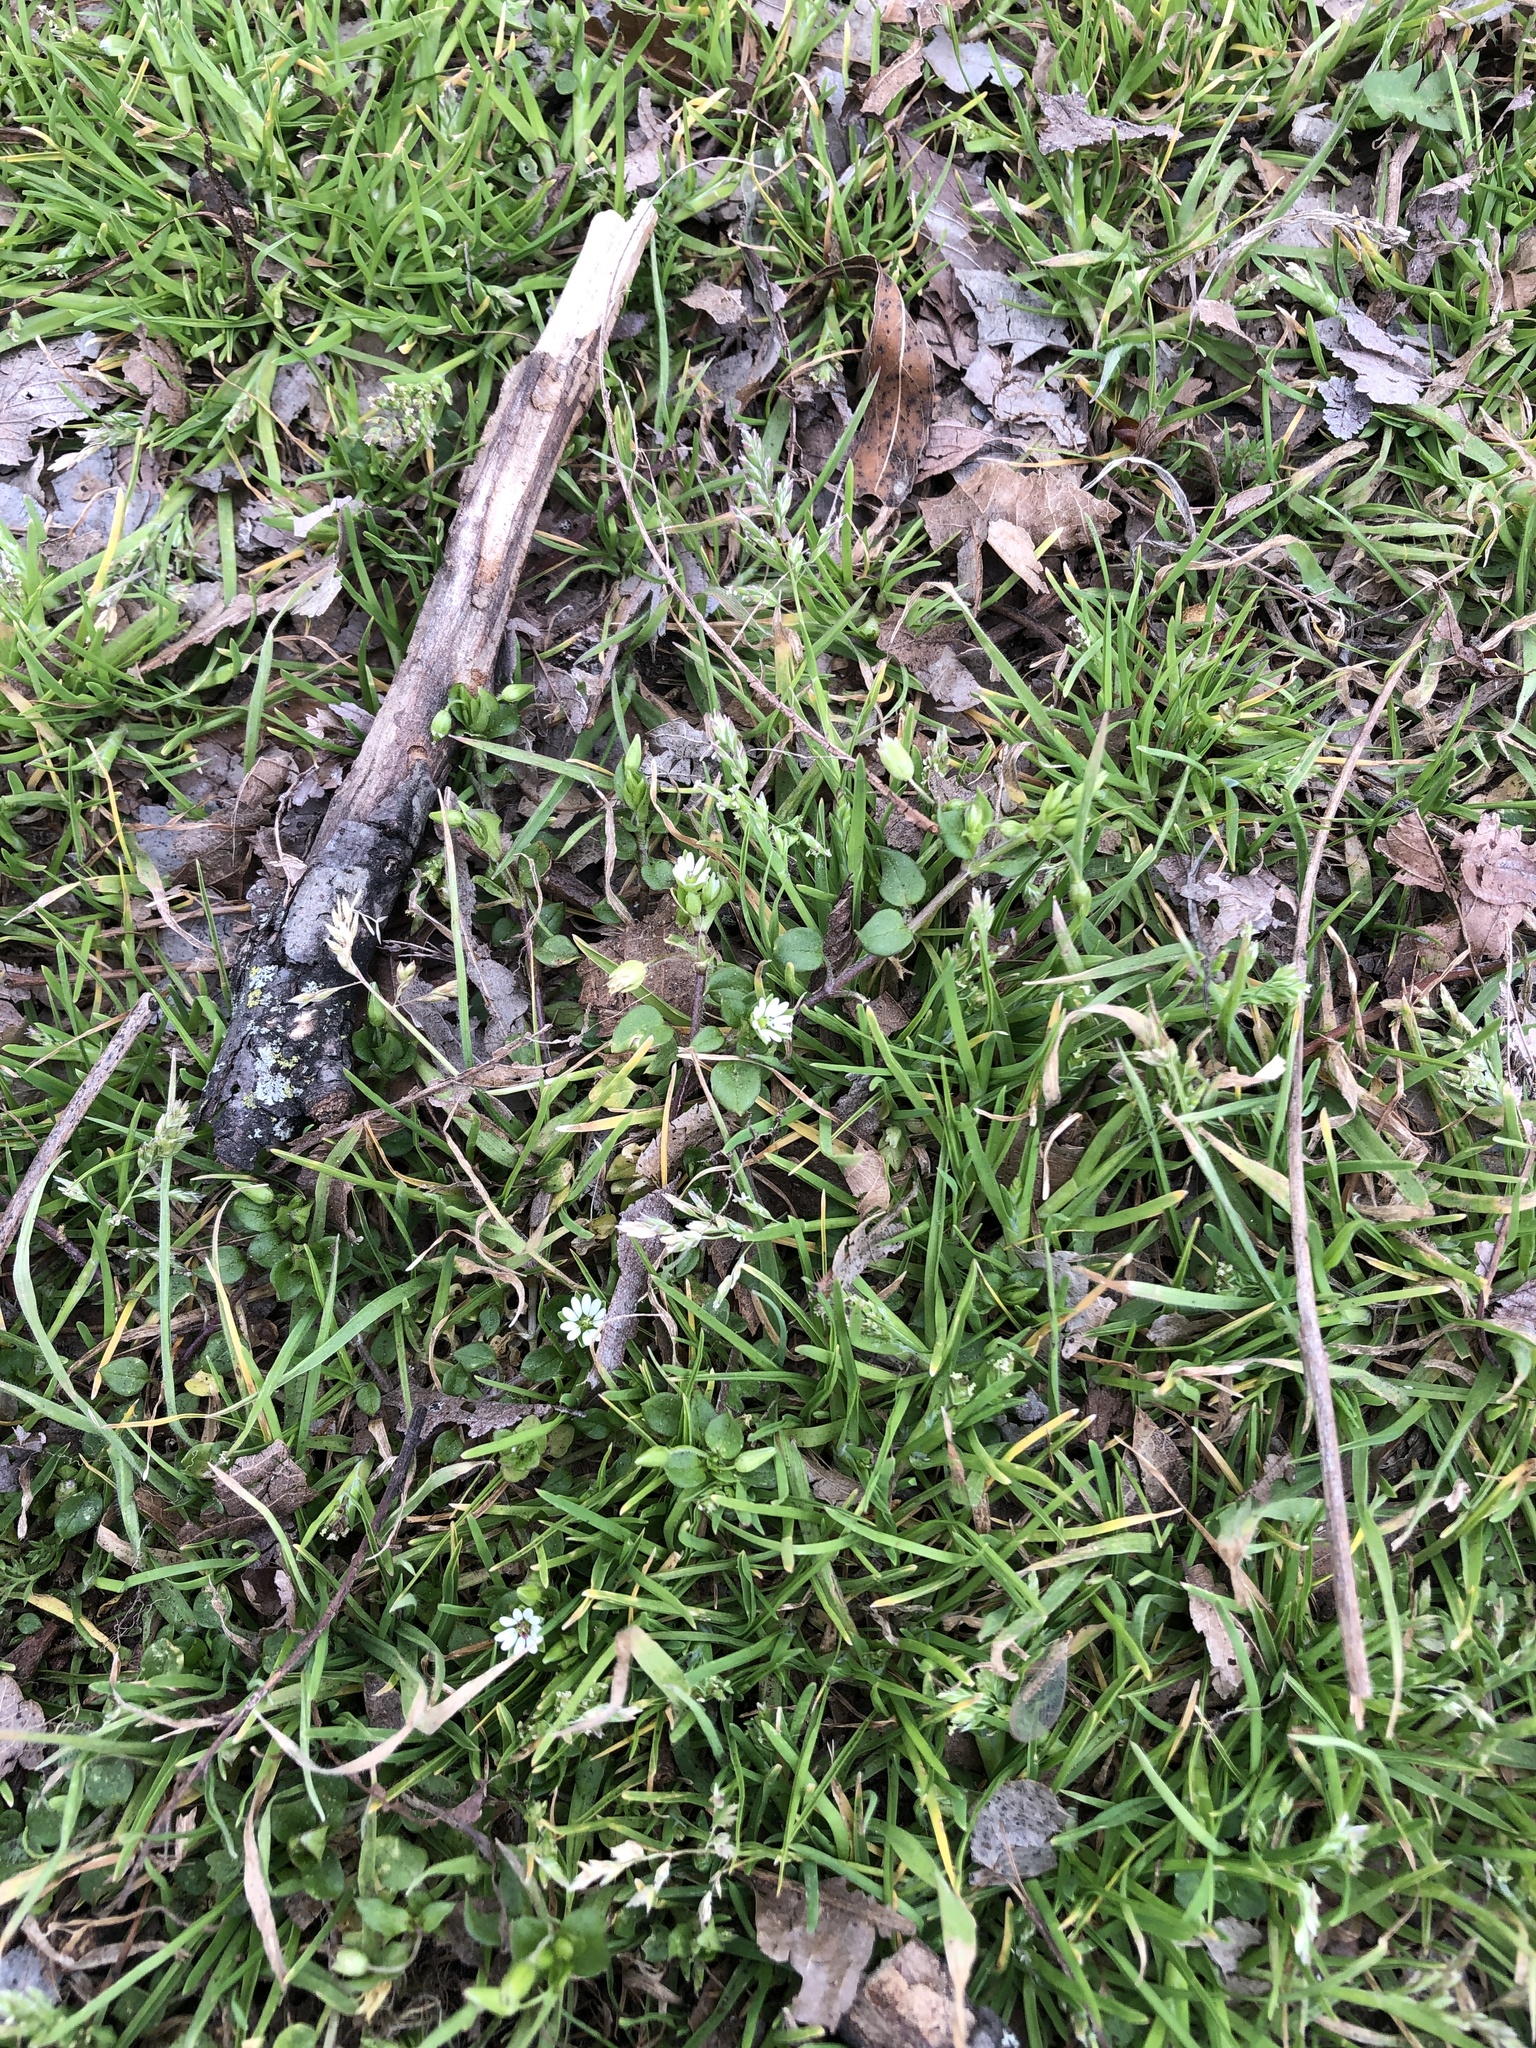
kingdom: Plantae
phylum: Tracheophyta
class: Magnoliopsida
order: Caryophyllales
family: Caryophyllaceae
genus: Stellaria
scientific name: Stellaria media
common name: Common chickweed
